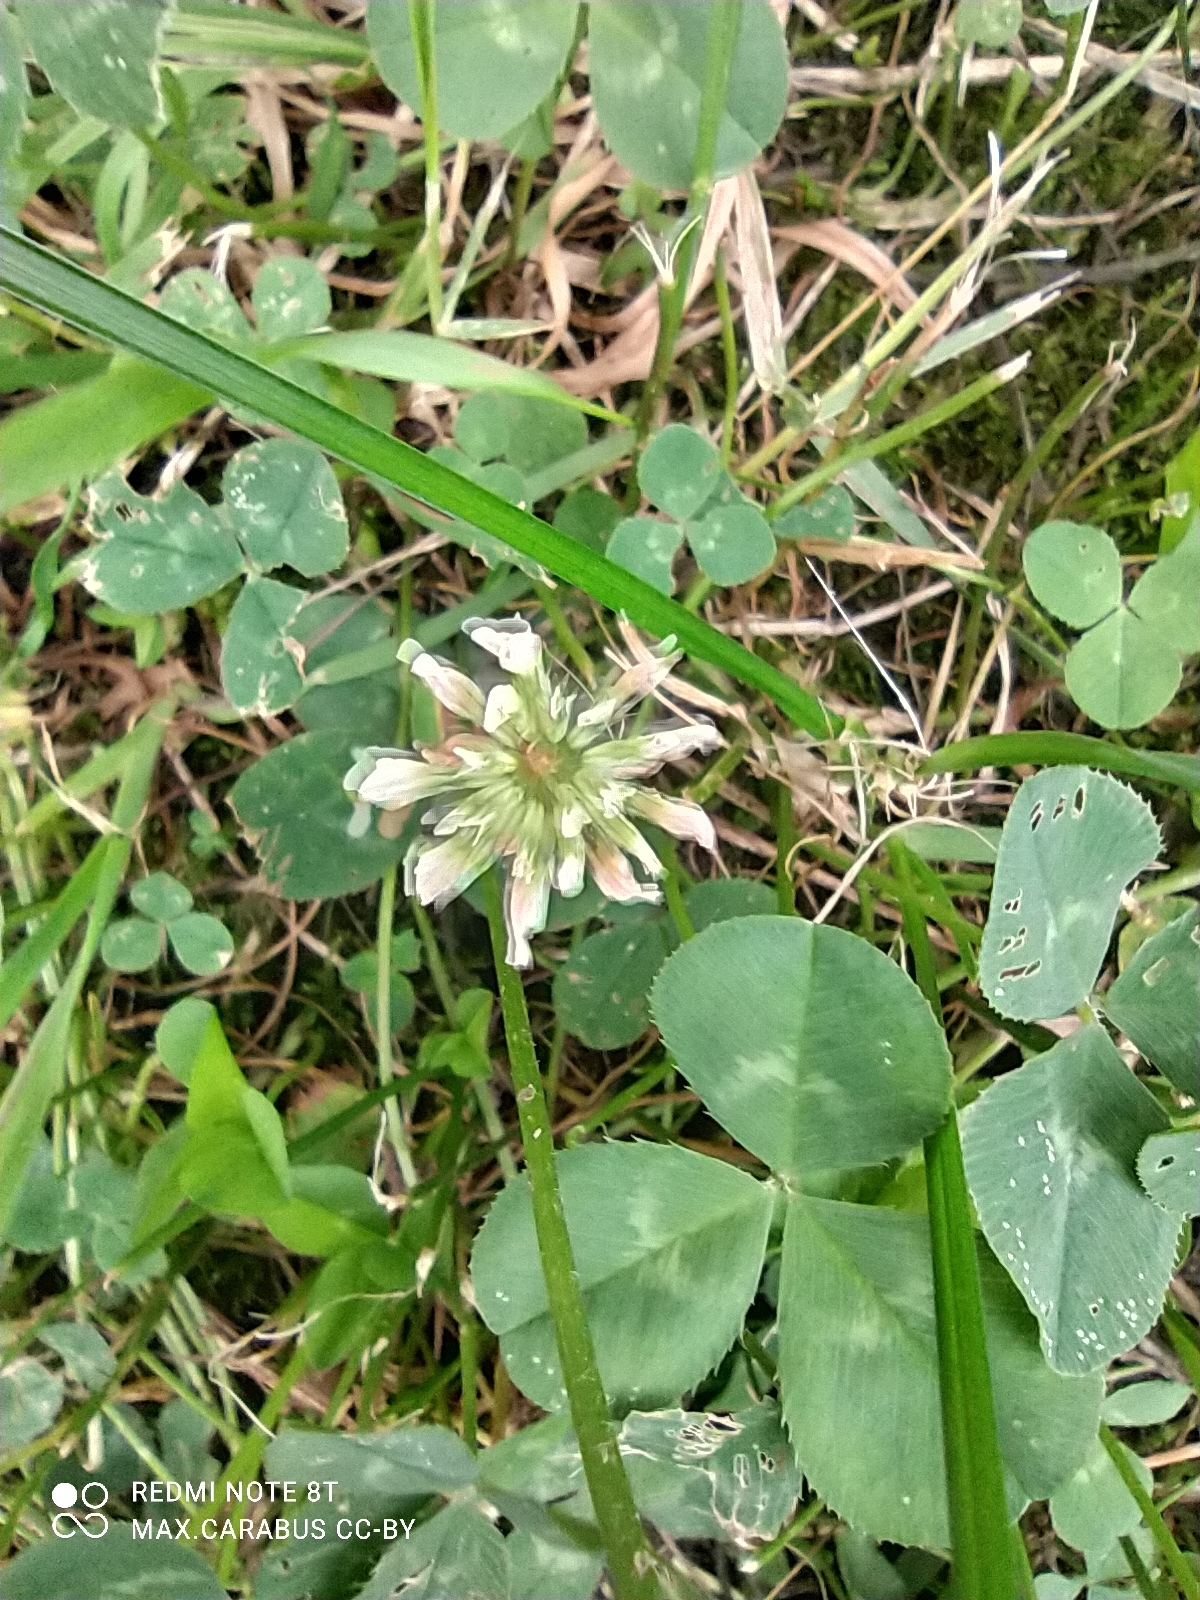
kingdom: Plantae
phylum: Tracheophyta
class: Magnoliopsida
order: Fabales
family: Fabaceae
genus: Trifolium
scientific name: Trifolium repens
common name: White clover
